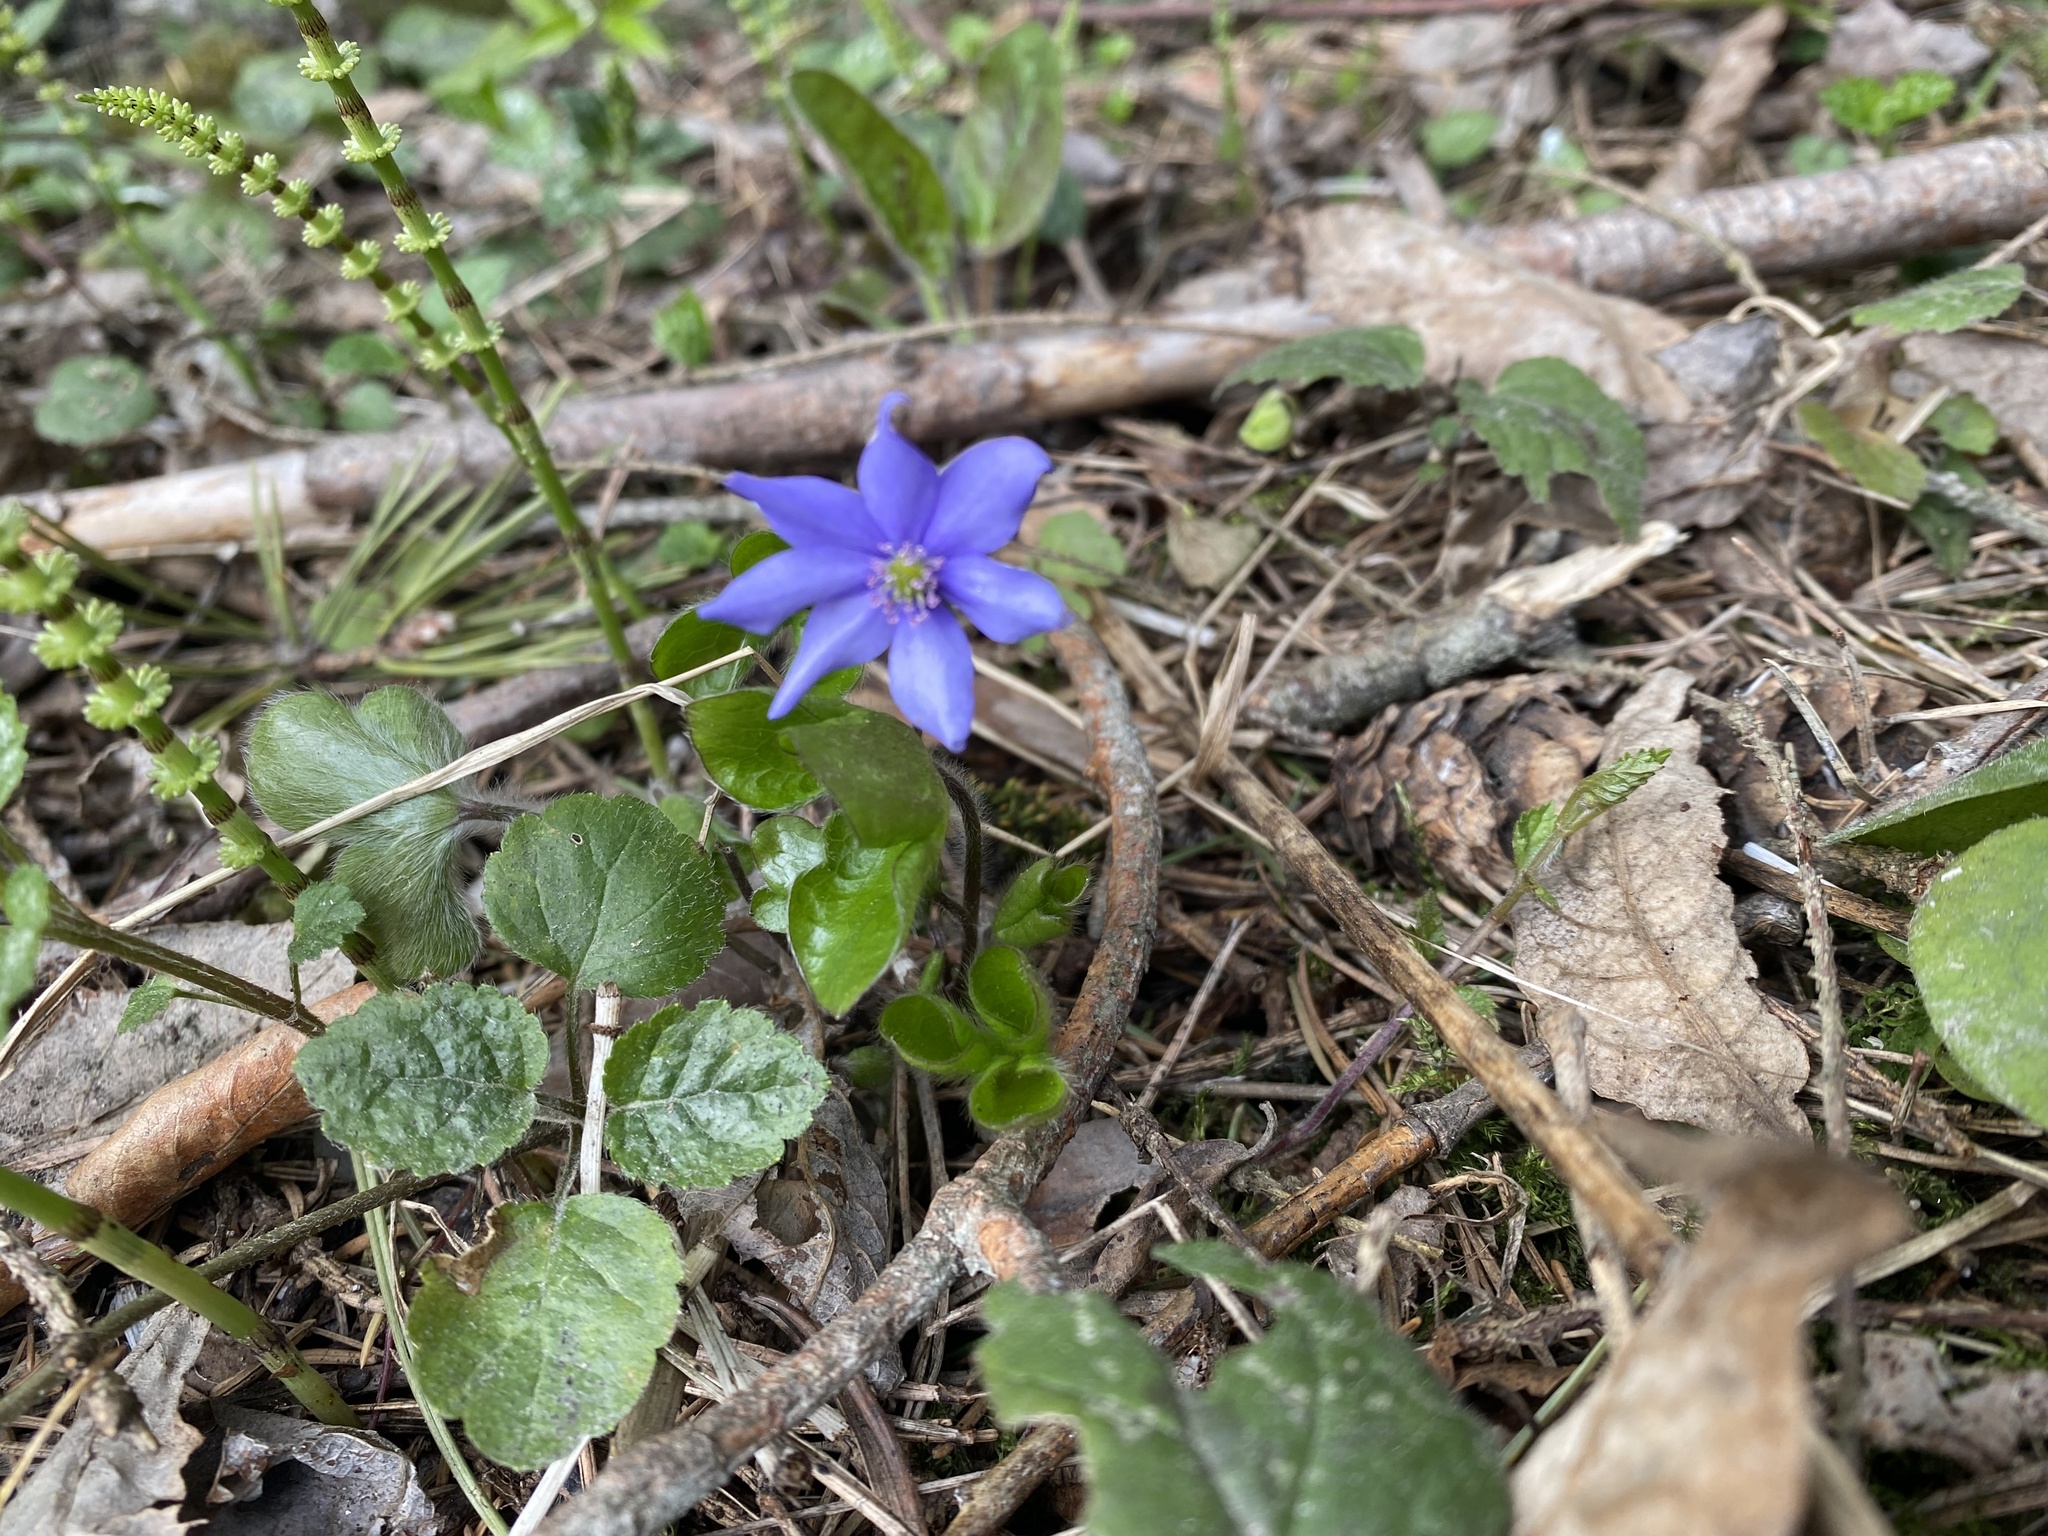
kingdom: Plantae
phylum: Tracheophyta
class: Magnoliopsida
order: Ranunculales
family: Ranunculaceae
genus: Hepatica
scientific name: Hepatica nobilis
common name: Liverleaf
